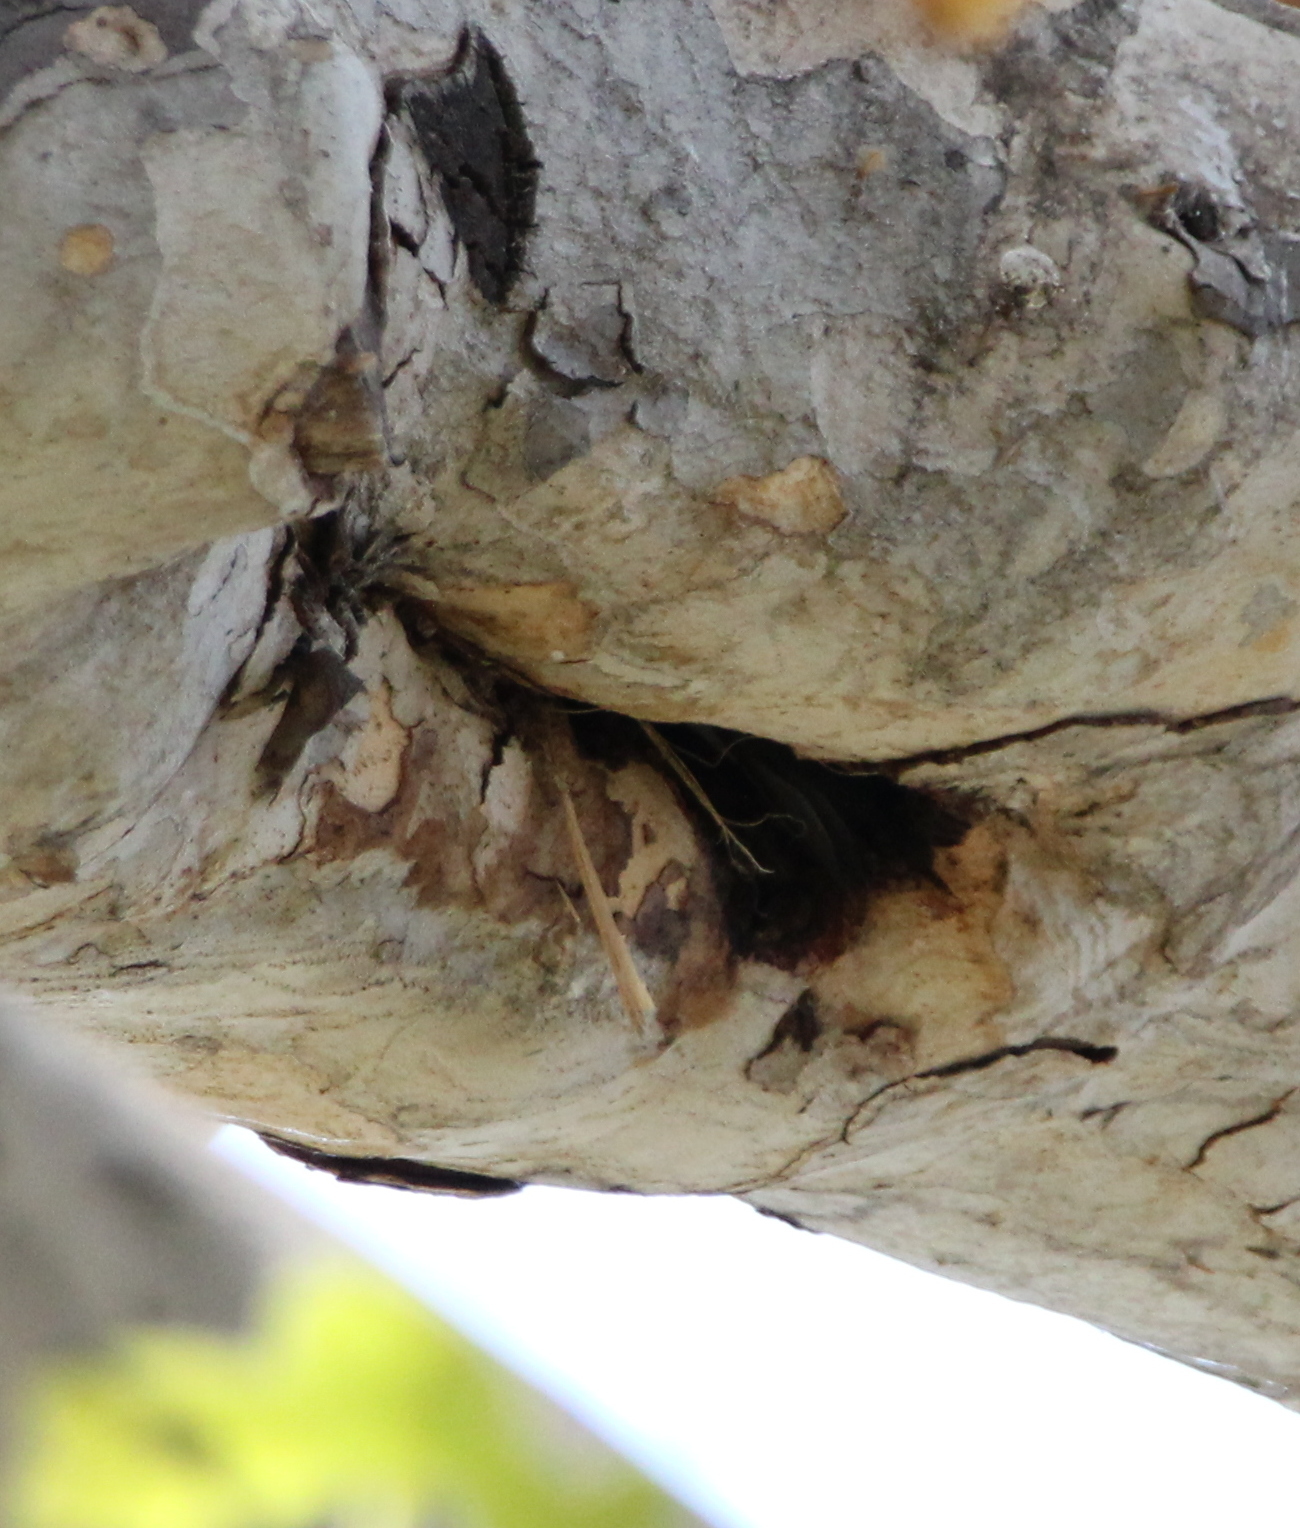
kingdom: Animalia
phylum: Chordata
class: Aves
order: Passeriformes
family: Hirundinidae
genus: Tachycineta
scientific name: Tachycineta bicolor
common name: Tree swallow
